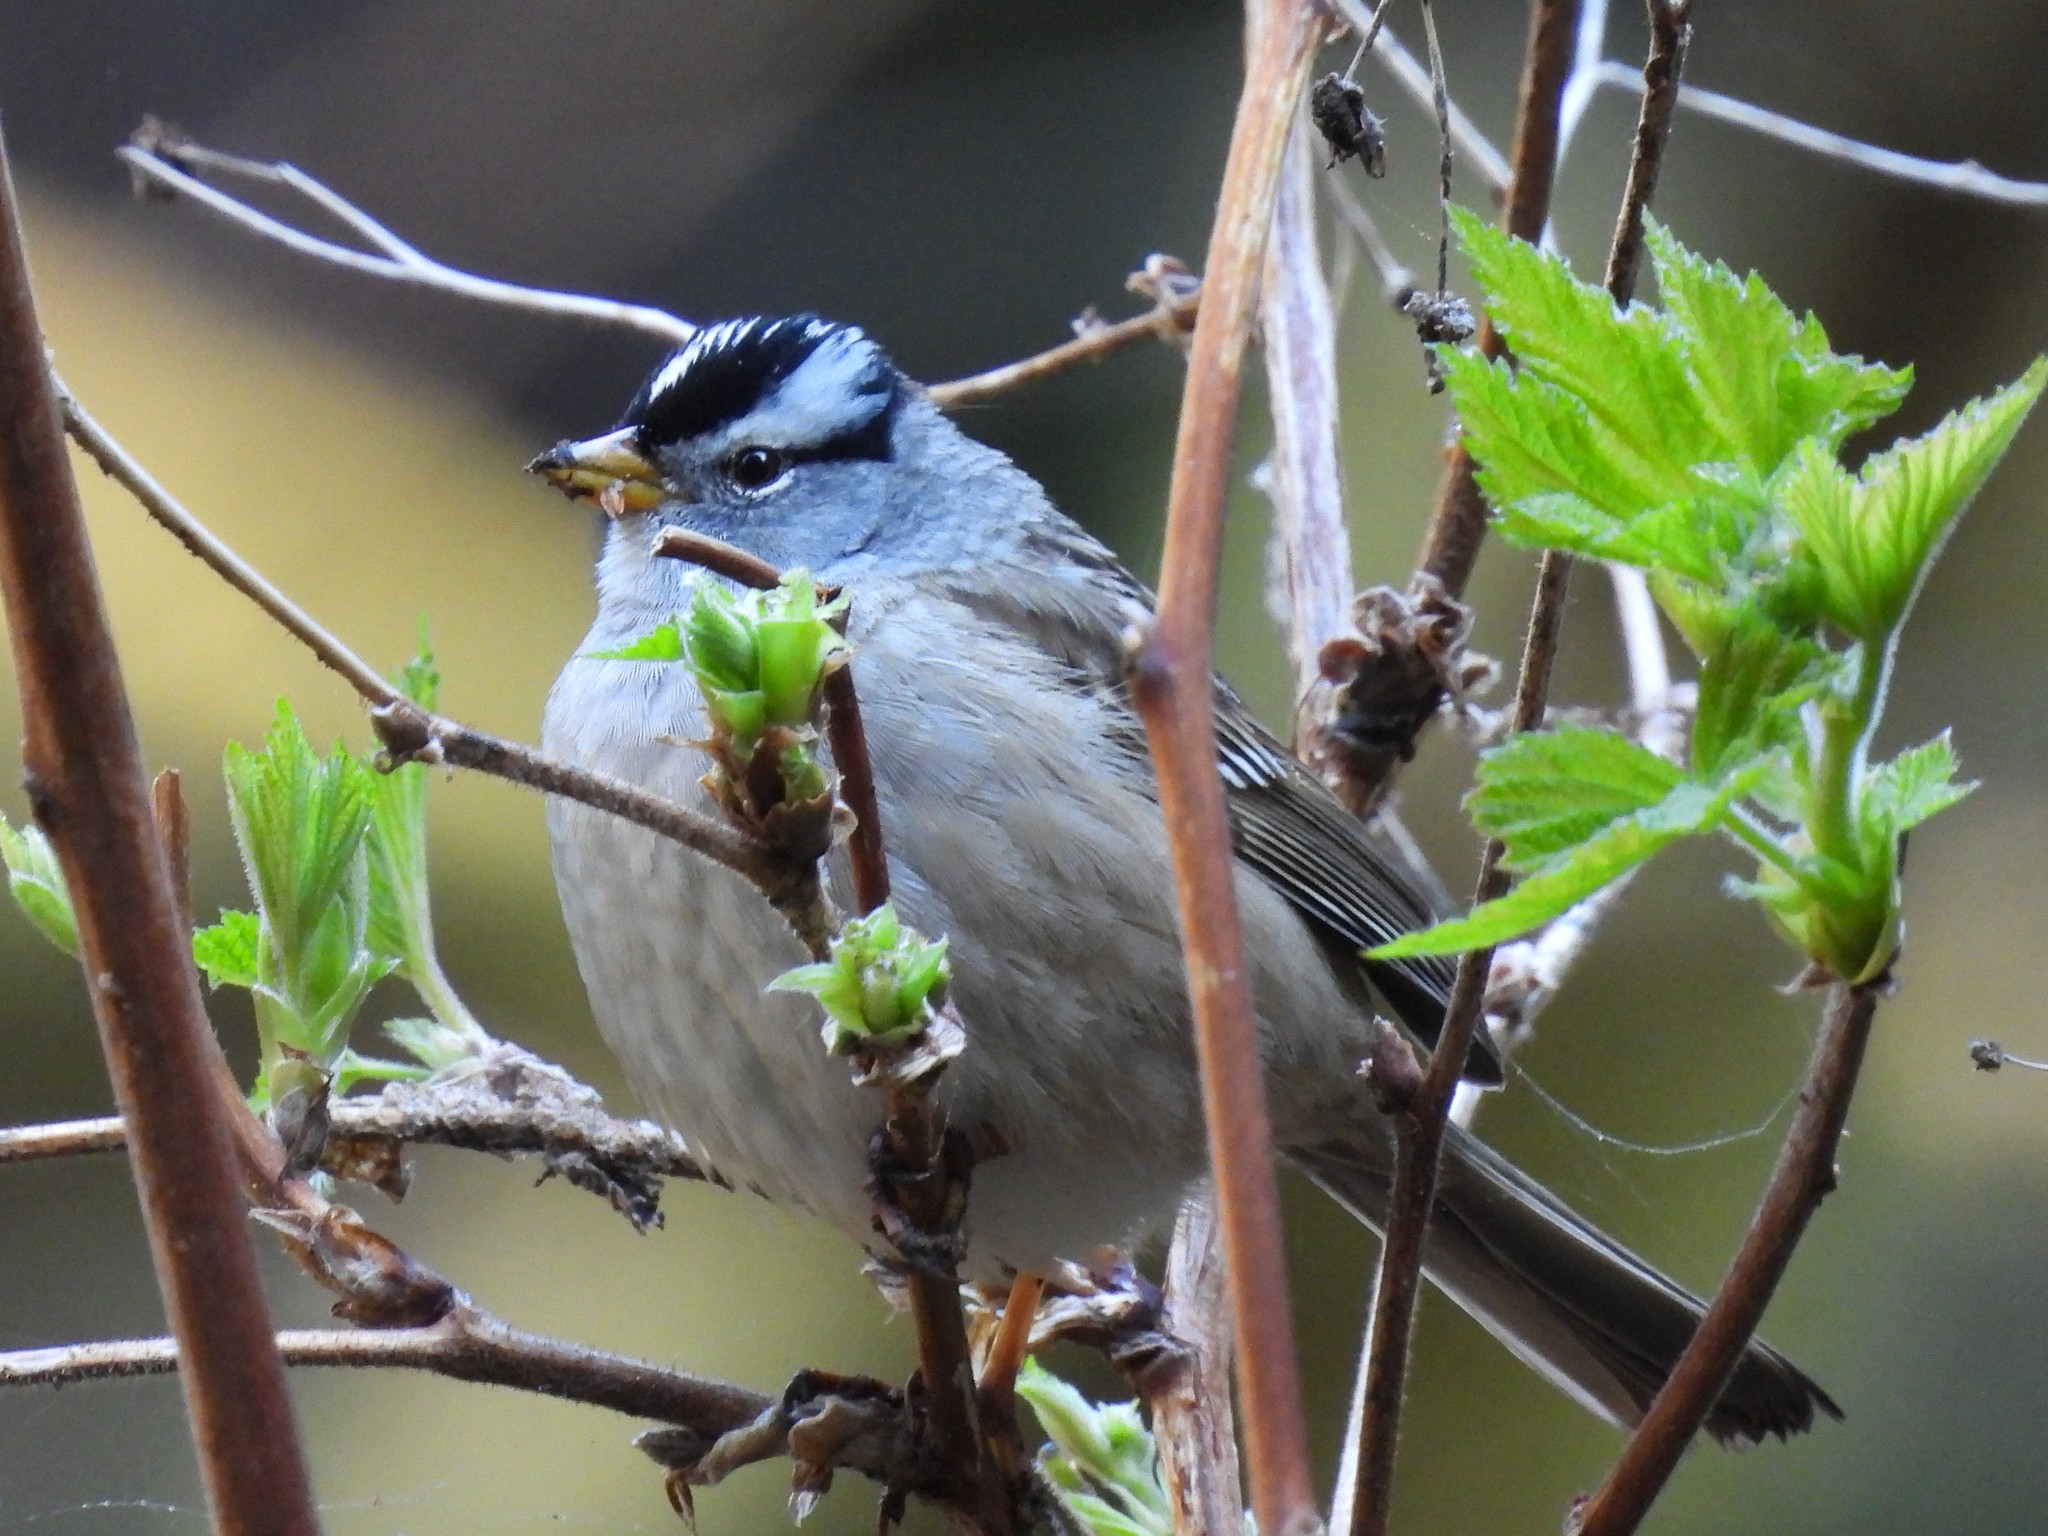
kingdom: Animalia
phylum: Chordata
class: Aves
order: Passeriformes
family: Passerellidae
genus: Zonotrichia
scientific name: Zonotrichia leucophrys
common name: White-crowned sparrow
